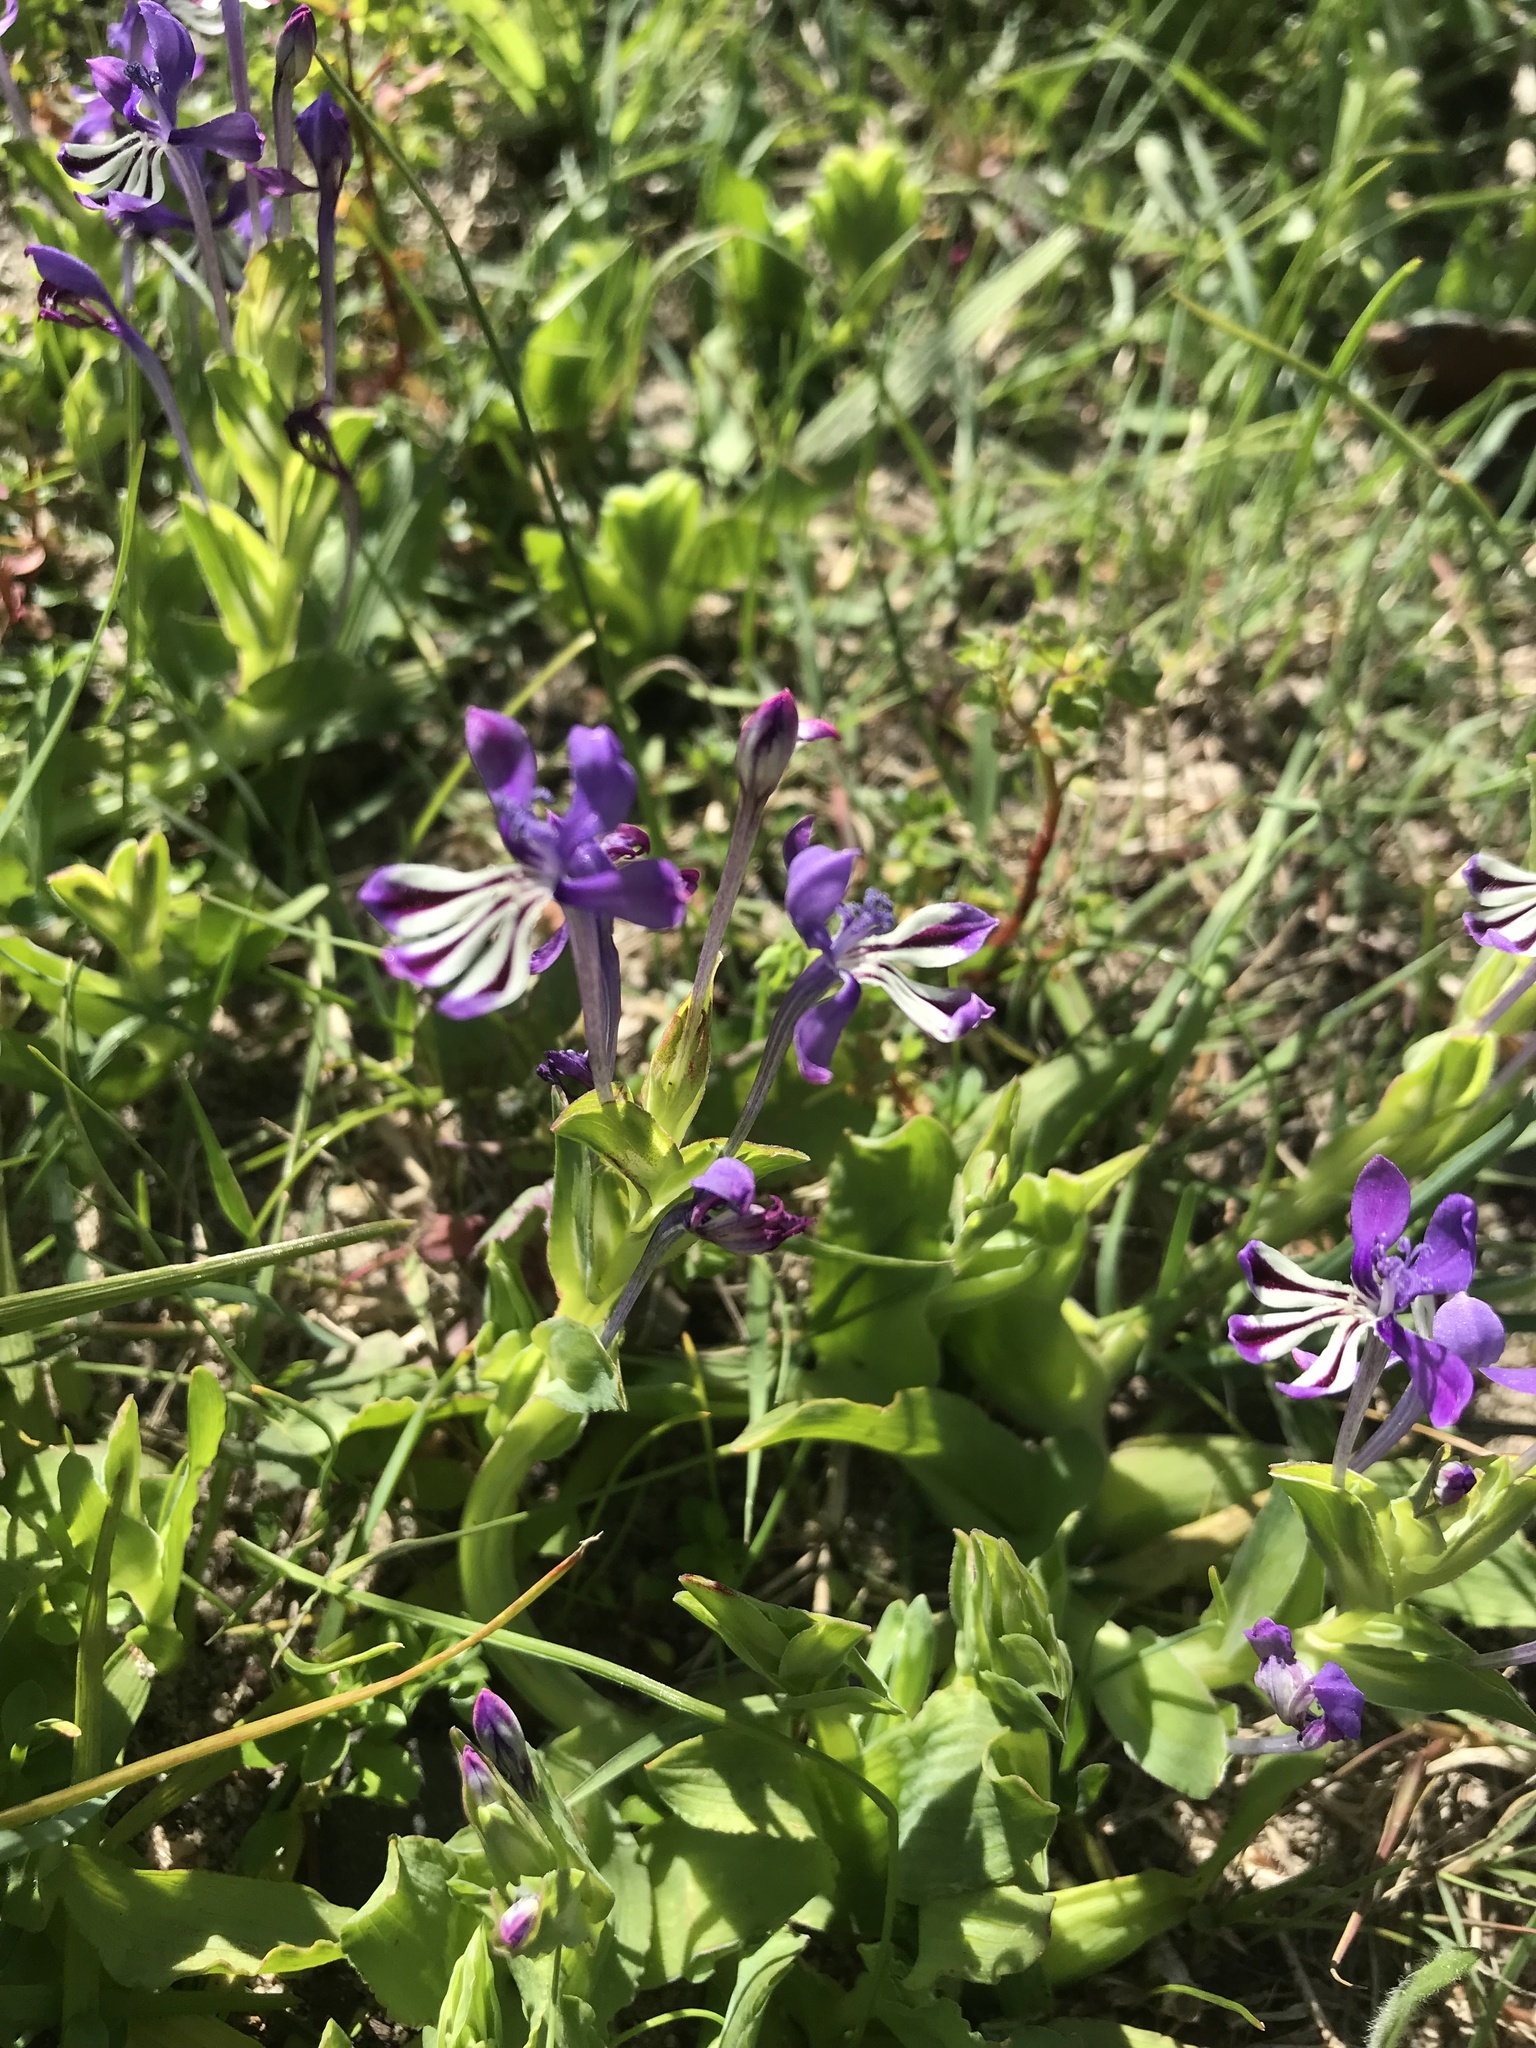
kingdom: Plantae
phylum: Tracheophyta
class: Liliopsida
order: Asparagales
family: Iridaceae
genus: Lapeirousia
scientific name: Lapeirousia jacquinii
